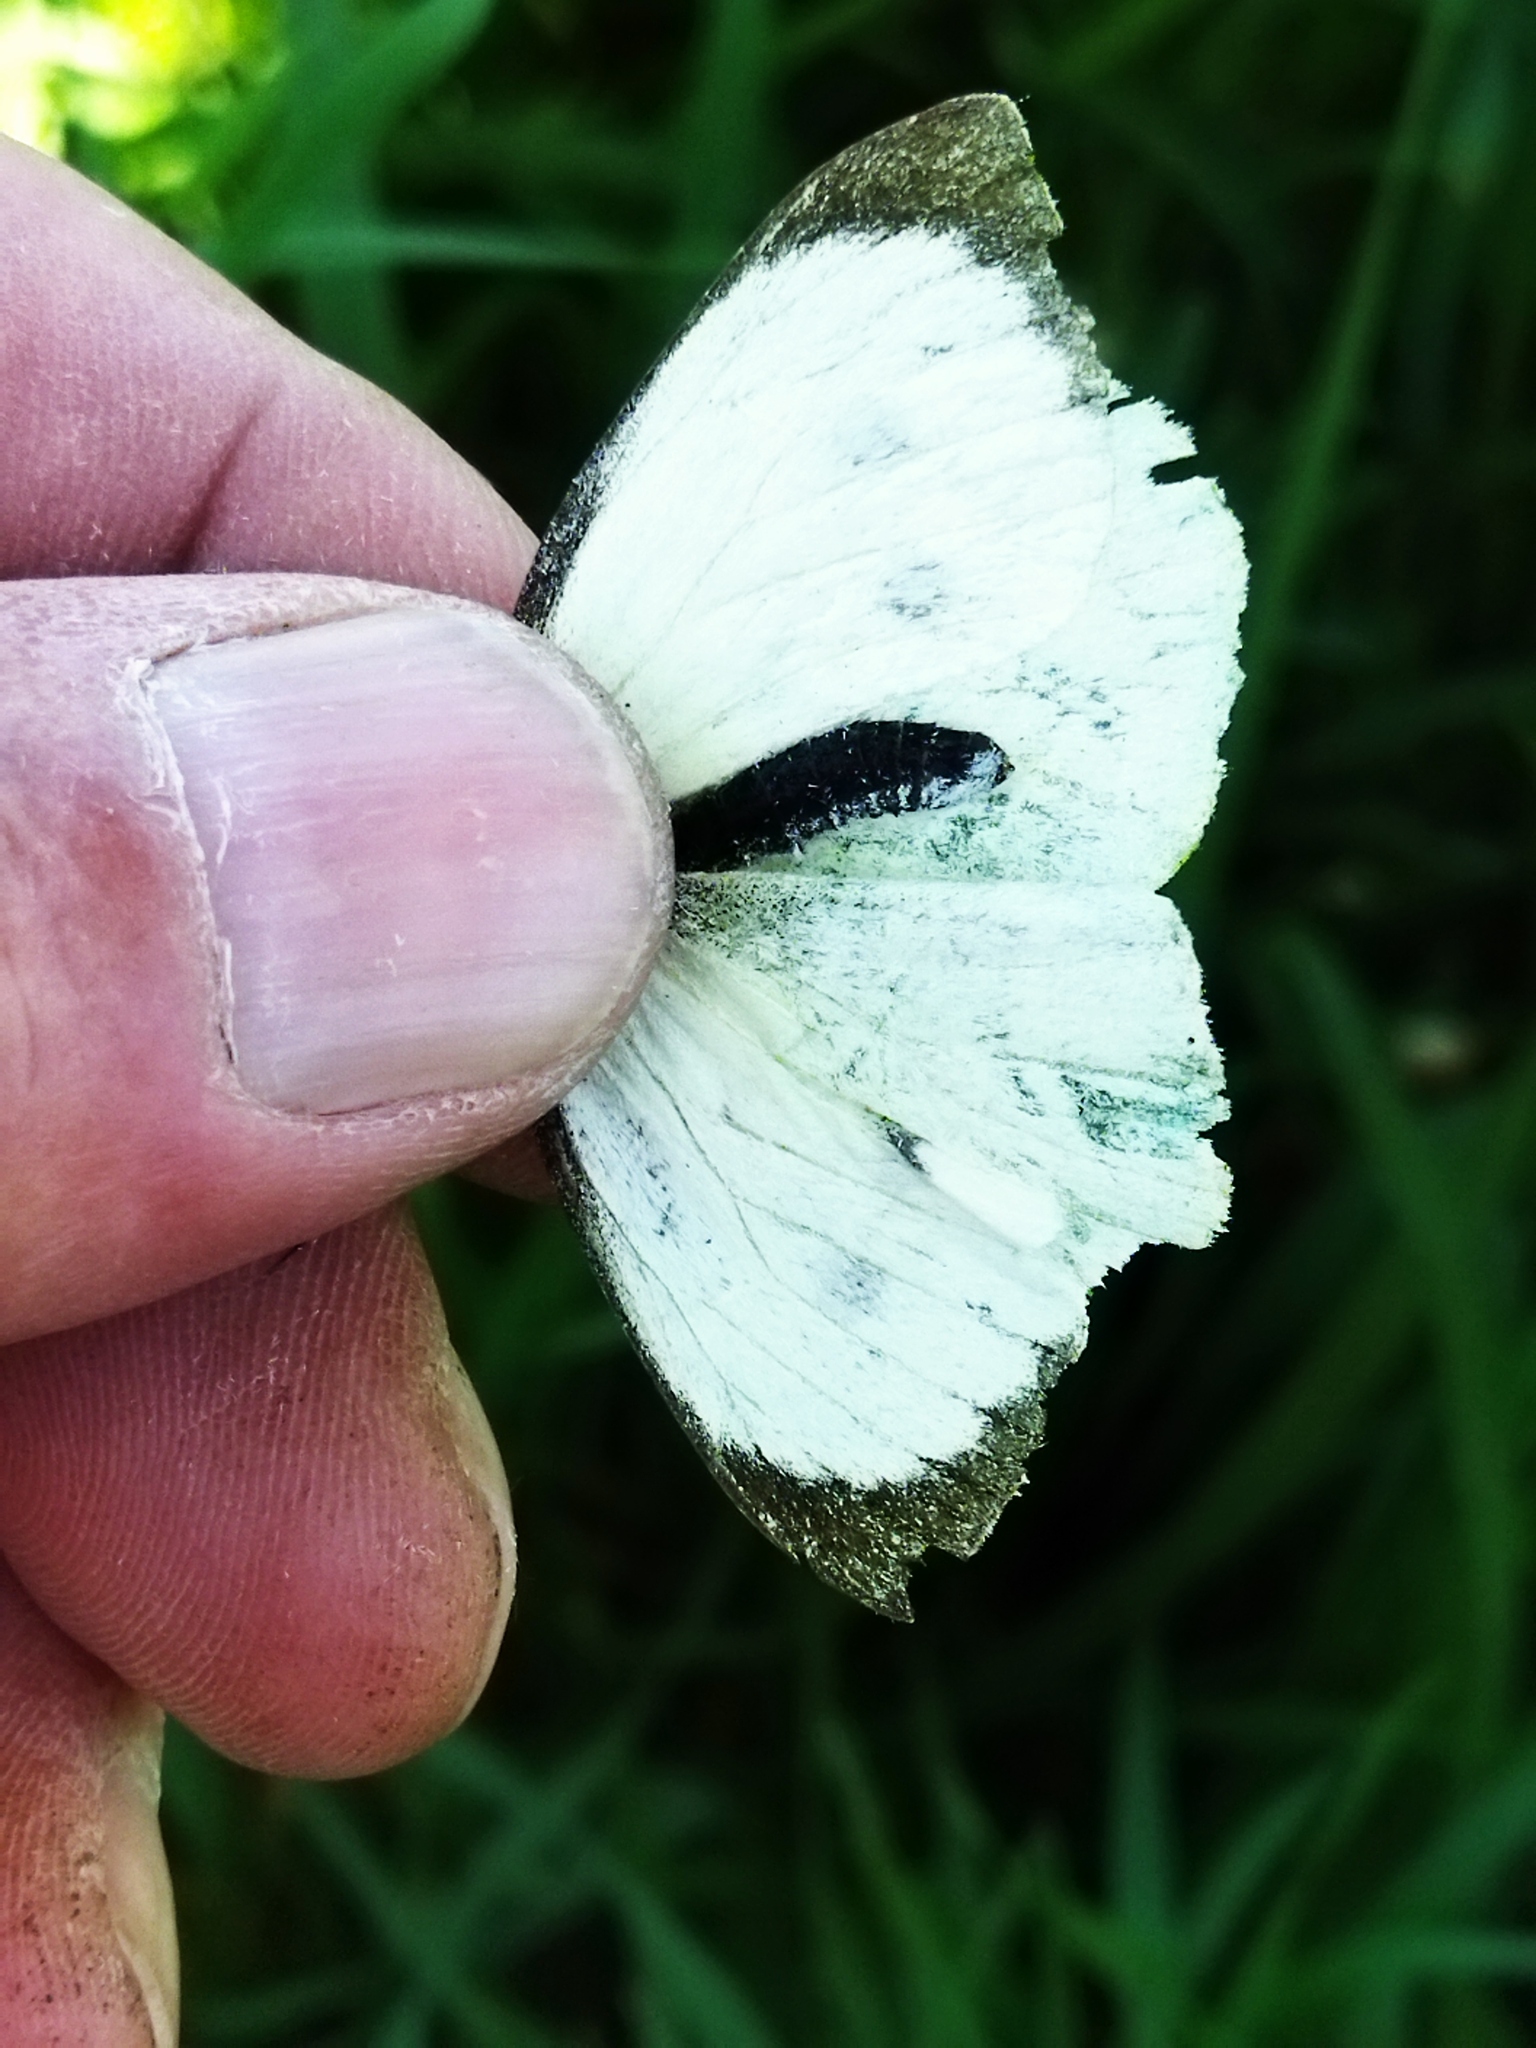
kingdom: Animalia
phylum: Arthropoda
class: Insecta
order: Lepidoptera
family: Pieridae
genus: Pieris
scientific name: Pieris brassicae
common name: Large white
